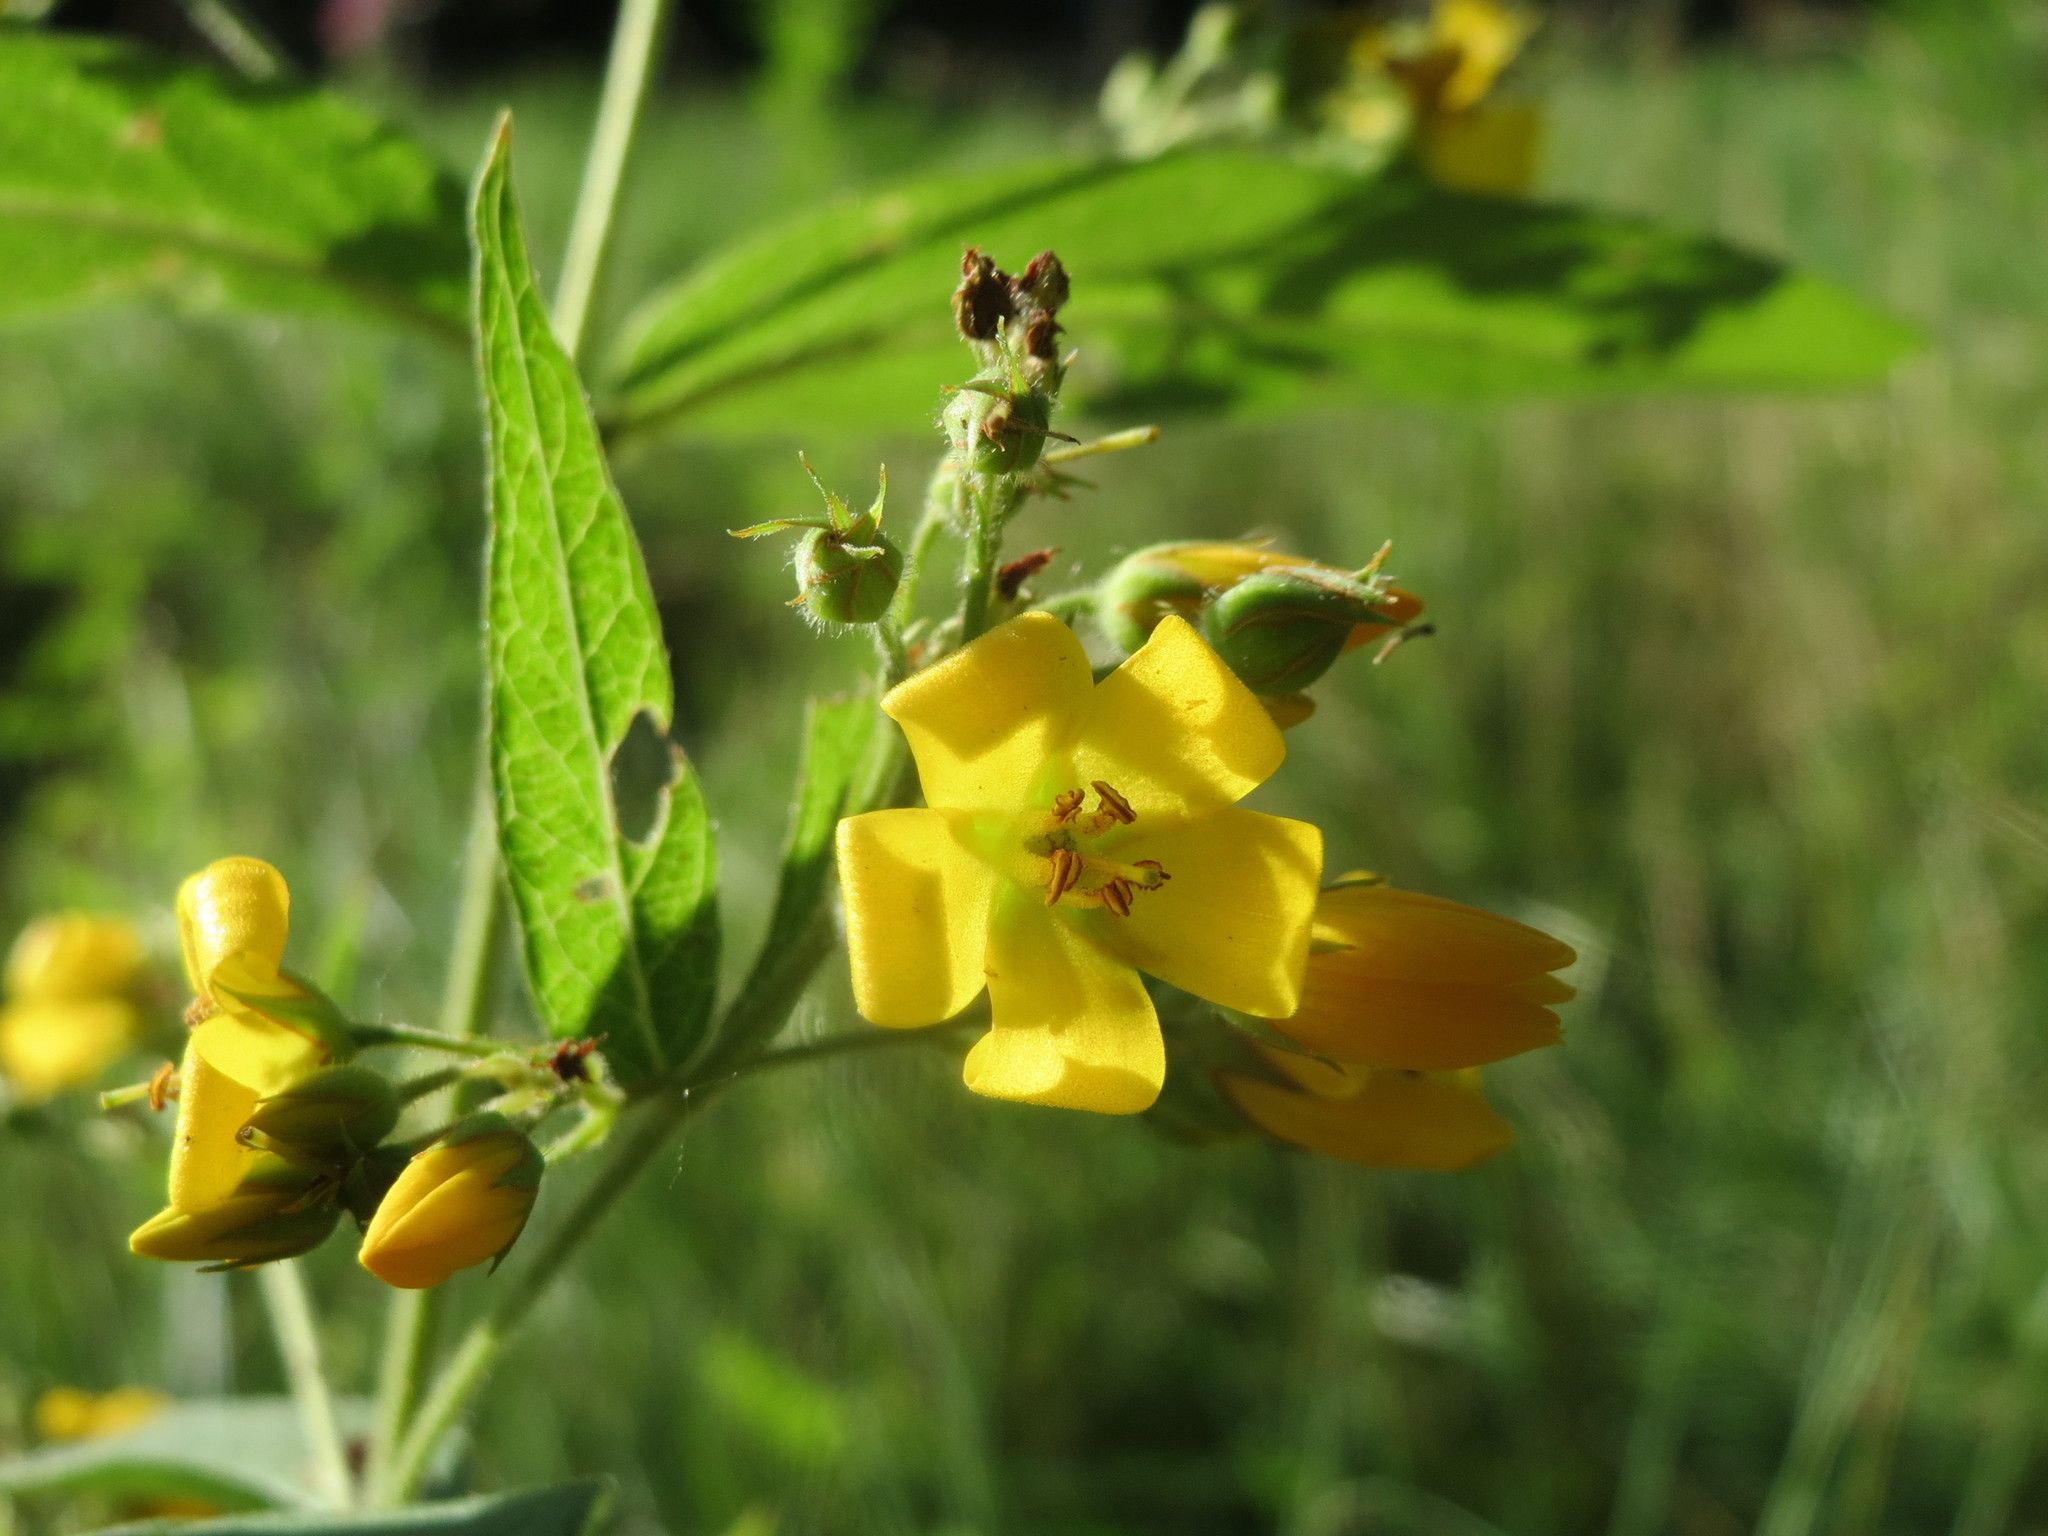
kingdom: Plantae
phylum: Tracheophyta
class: Magnoliopsida
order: Ericales
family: Primulaceae
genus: Lysimachia
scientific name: Lysimachia vulgaris
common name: Yellow loosestrife
